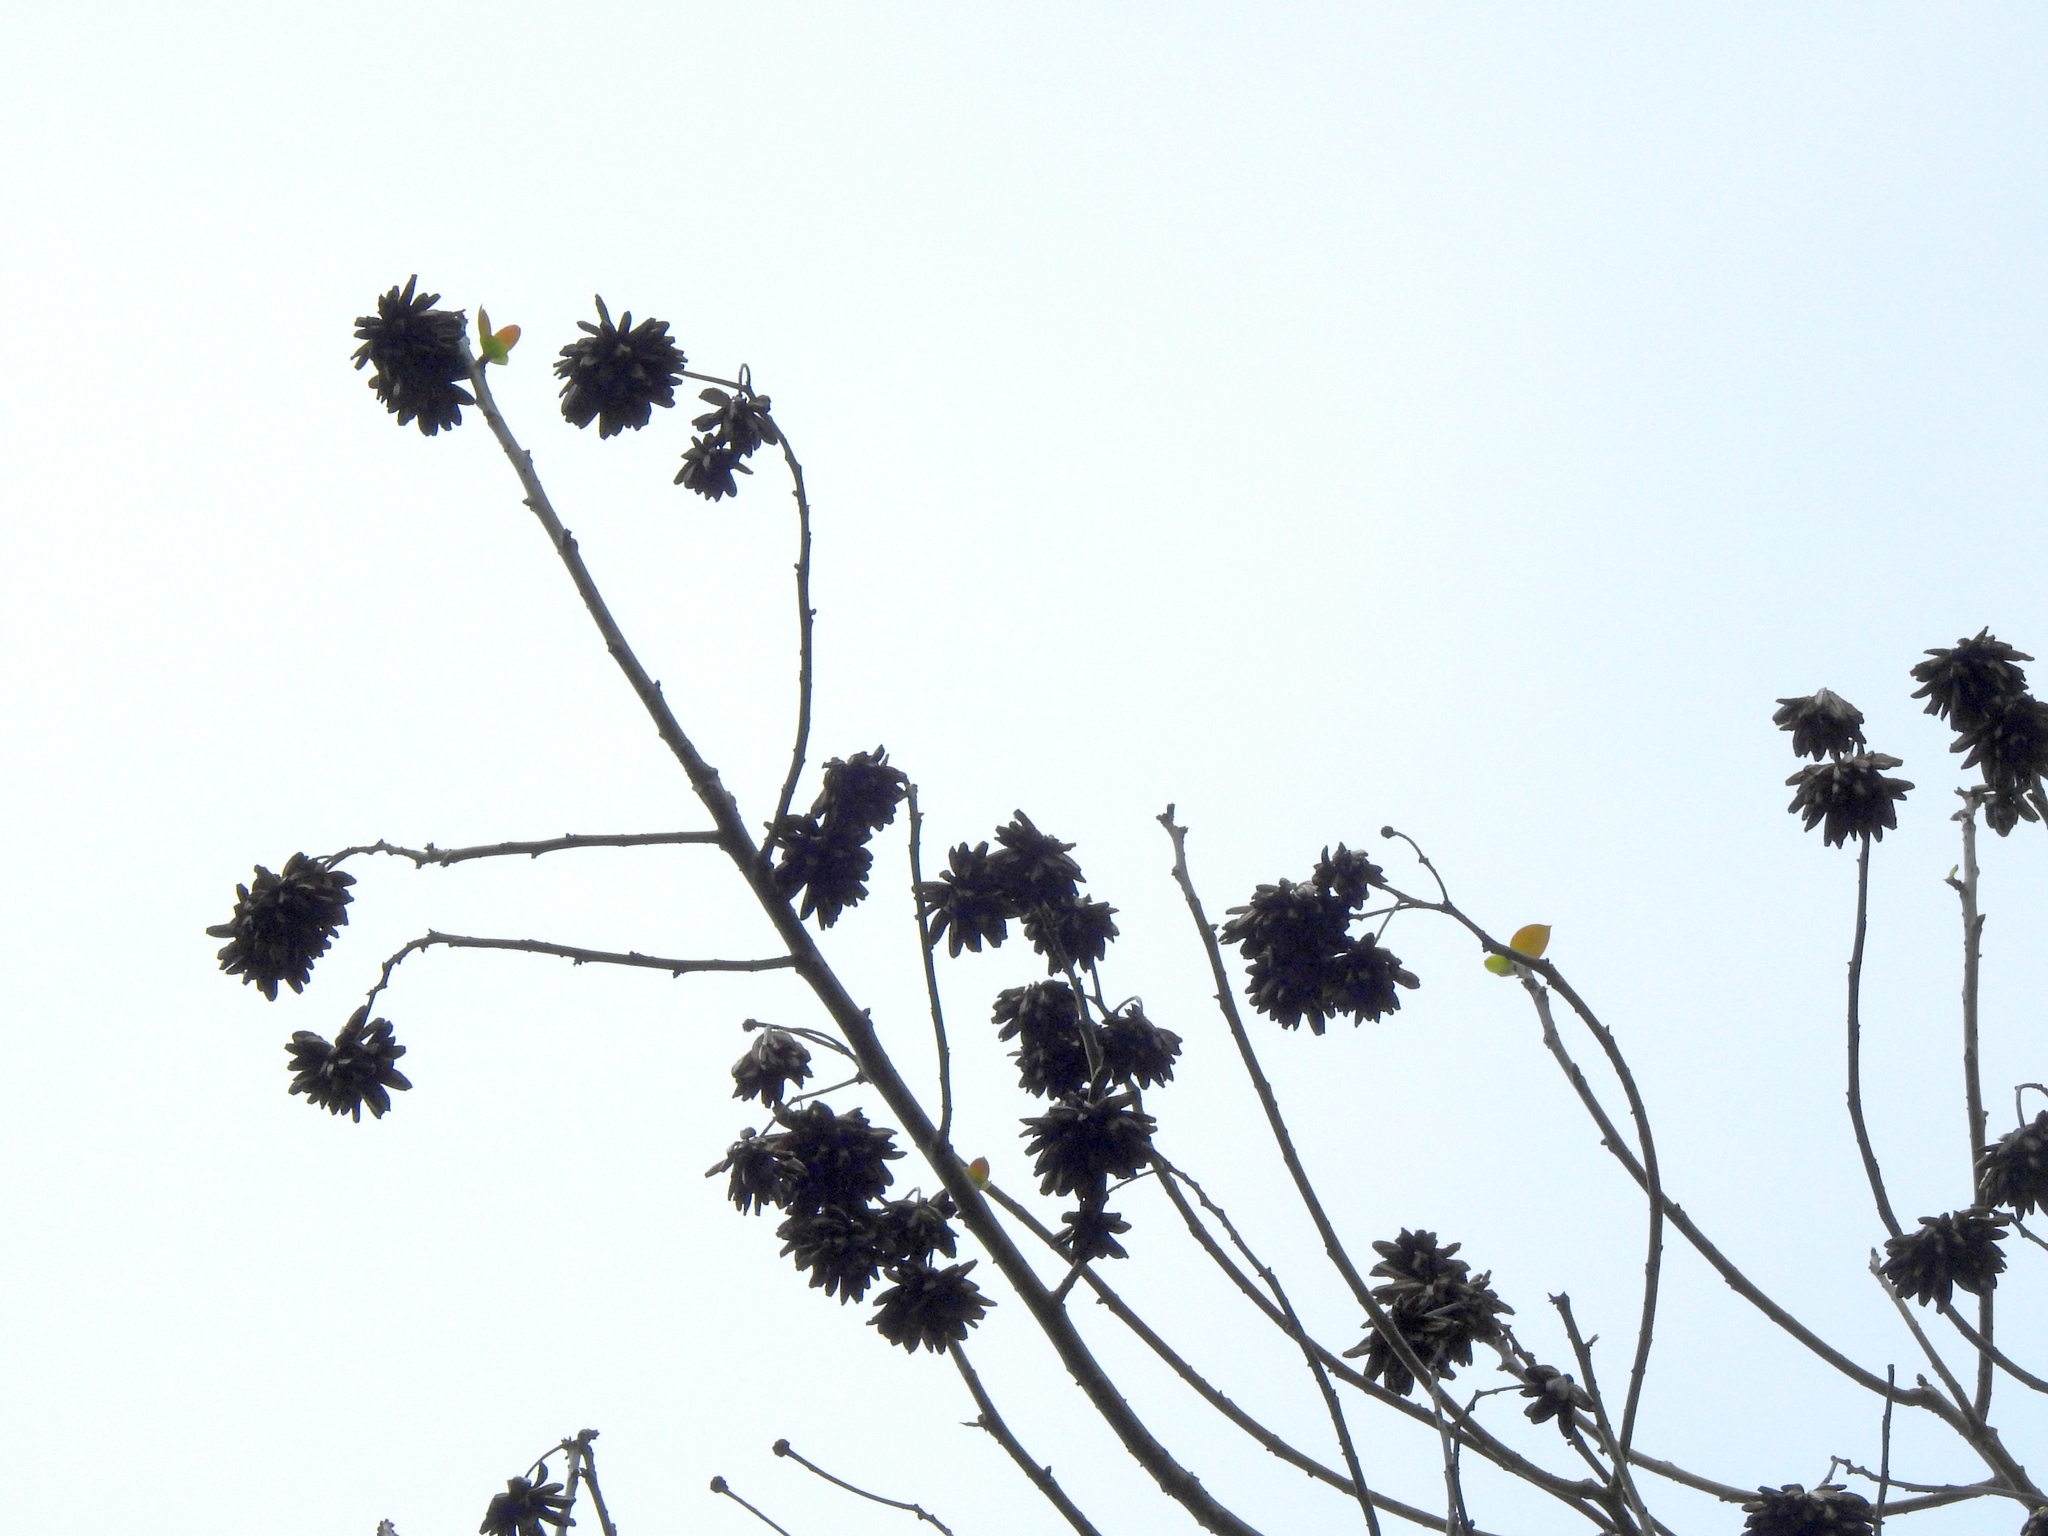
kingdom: Plantae
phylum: Tracheophyta
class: Magnoliopsida
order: Cornales
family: Nyssaceae
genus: Camptotheca
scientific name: Camptotheca acuminata
